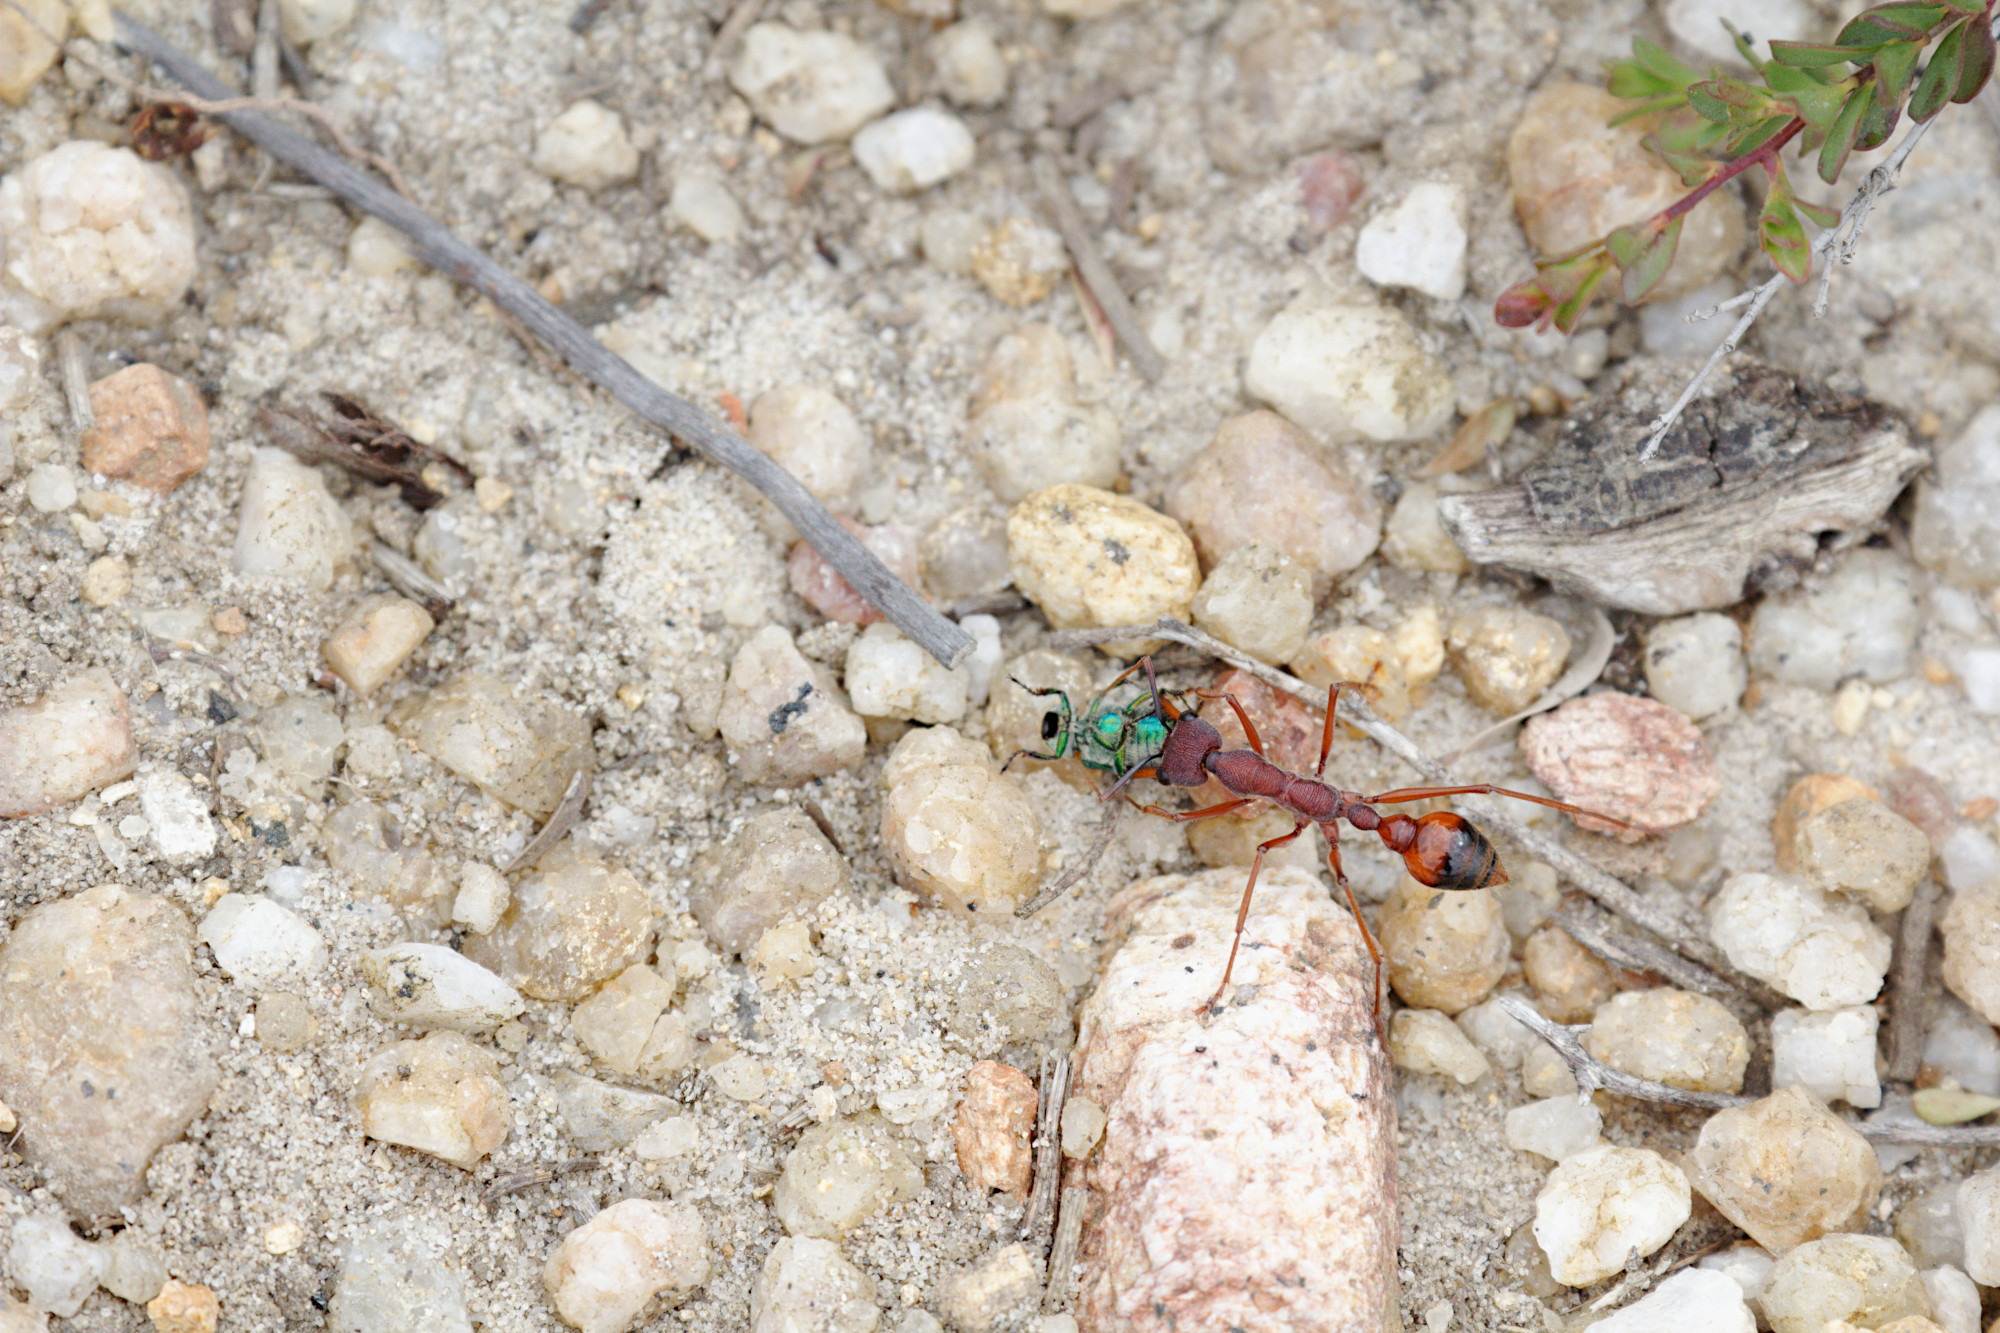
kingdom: Animalia
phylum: Arthropoda
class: Insecta
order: Hymenoptera
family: Formicidae
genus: Myrmecia
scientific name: Myrmecia nigriscapa
